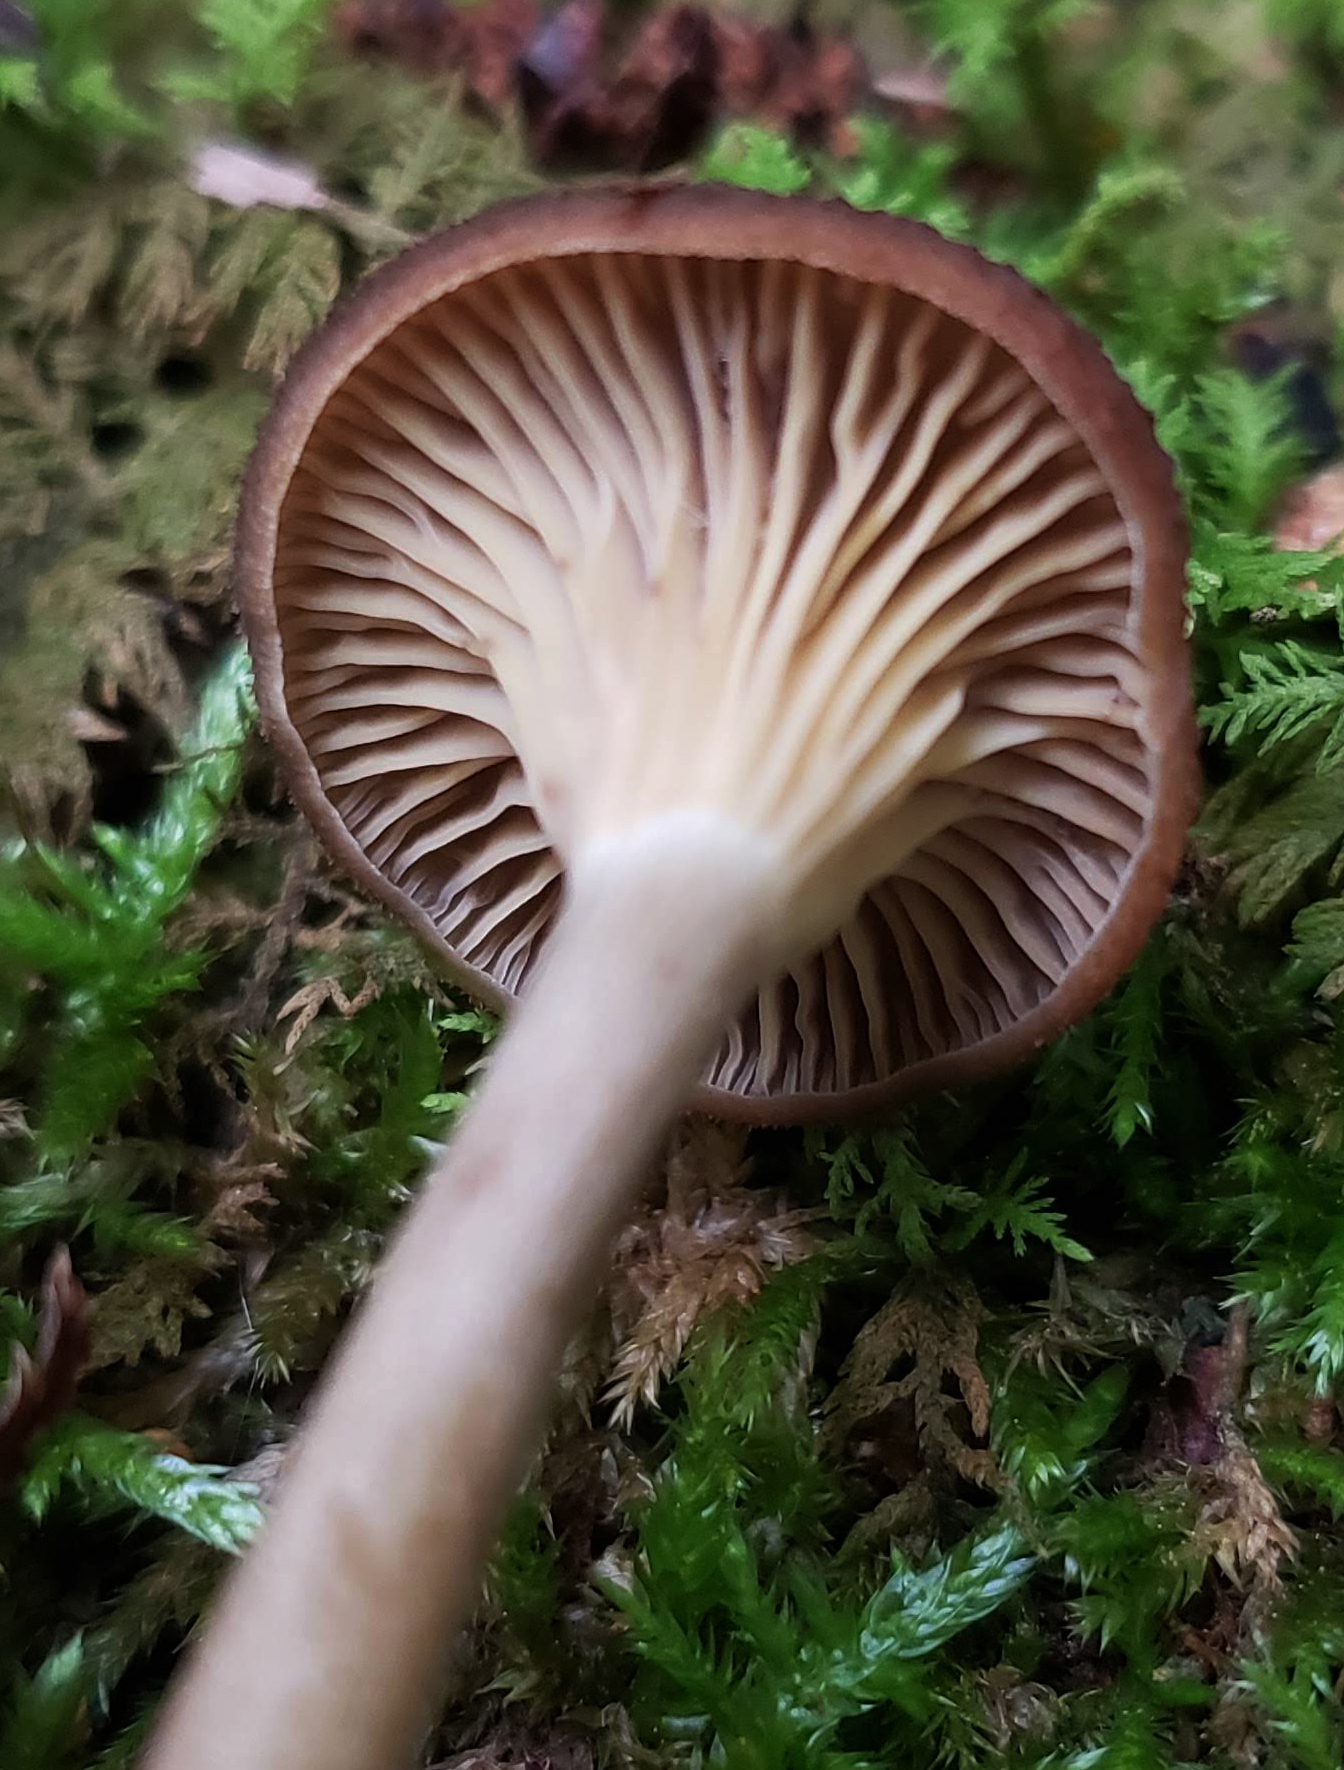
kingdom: Fungi
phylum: Basidiomycota
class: Agaricomycetes
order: Agaricales
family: Hygrophoraceae
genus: Arrhenia
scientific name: Arrhenia epichysium
